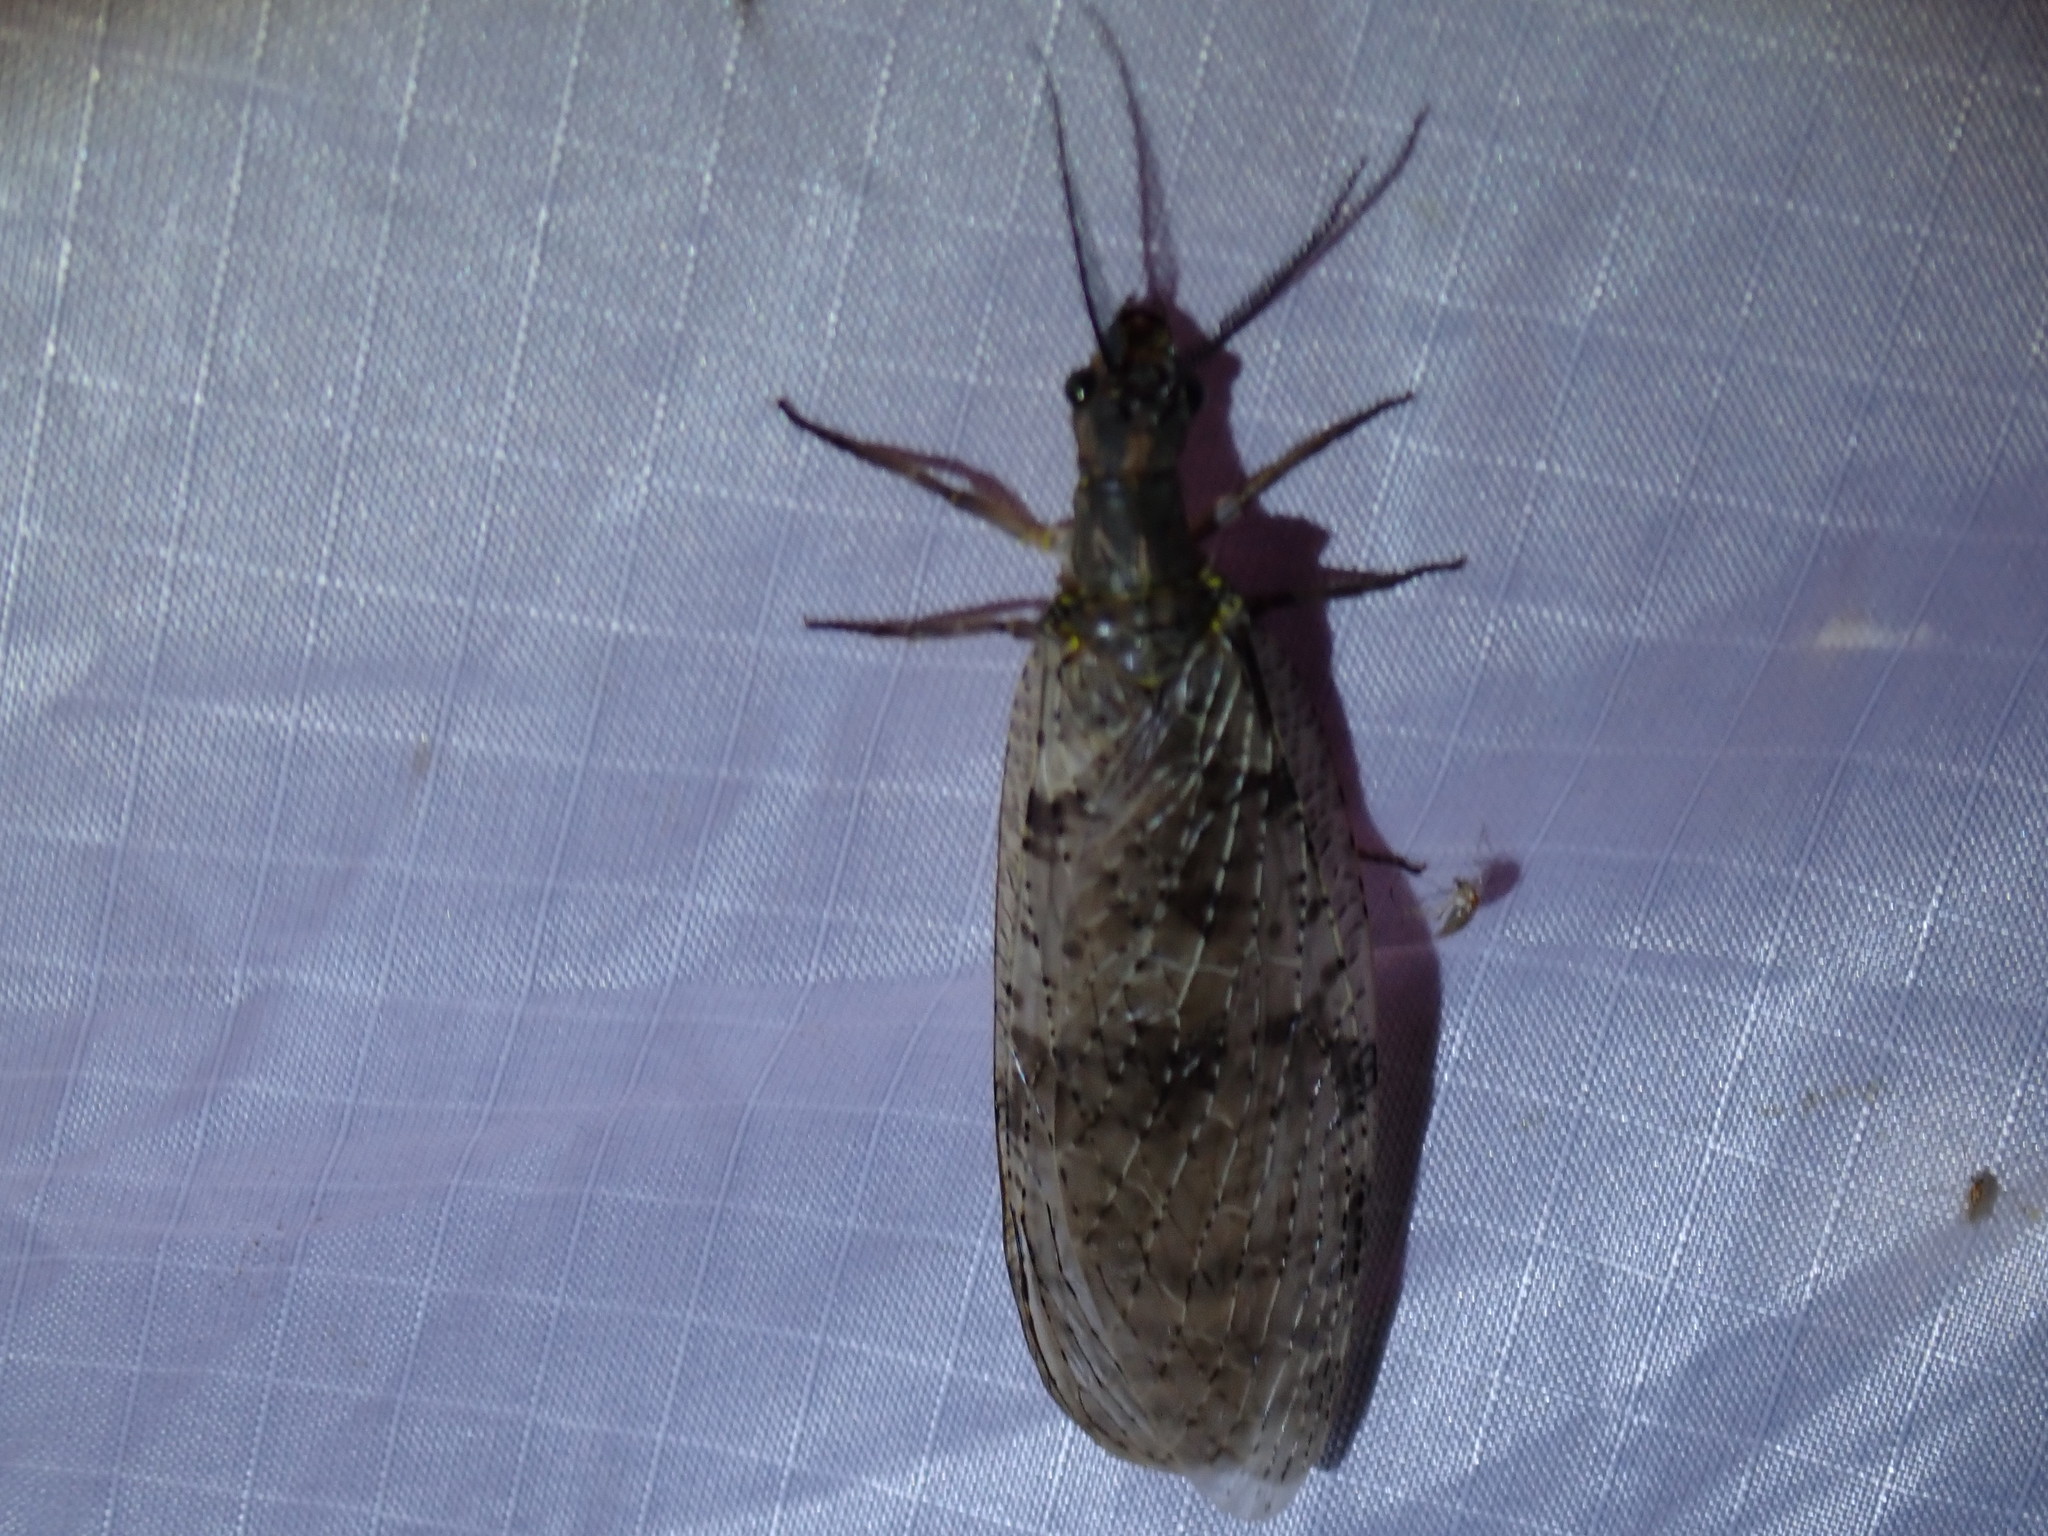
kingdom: Animalia
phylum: Arthropoda
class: Insecta
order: Megaloptera
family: Corydalidae
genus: Chauliodes
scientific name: Chauliodes pectinicornis
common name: Summer fishfly
